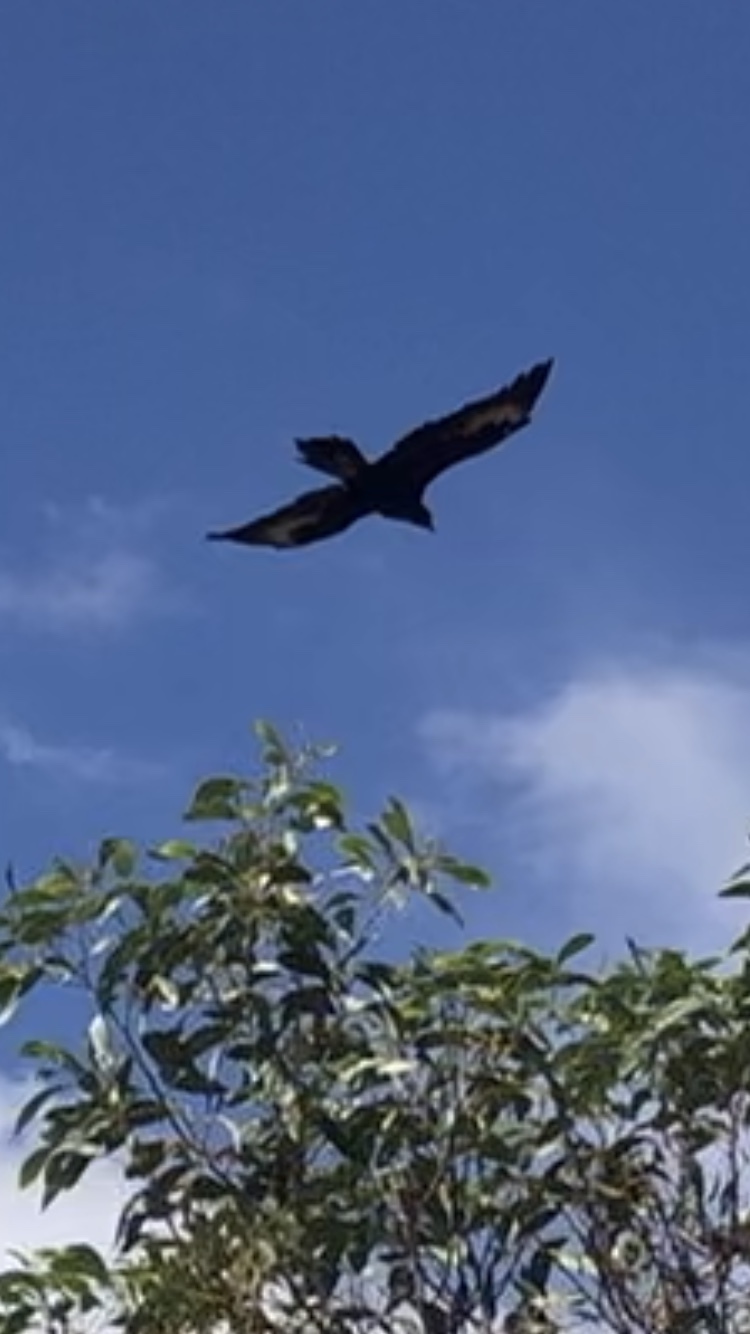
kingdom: Animalia
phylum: Chordata
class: Aves
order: Accipitriformes
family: Accipitridae
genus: Aquila
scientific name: Aquila audax
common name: Wedge-tailed eagle
